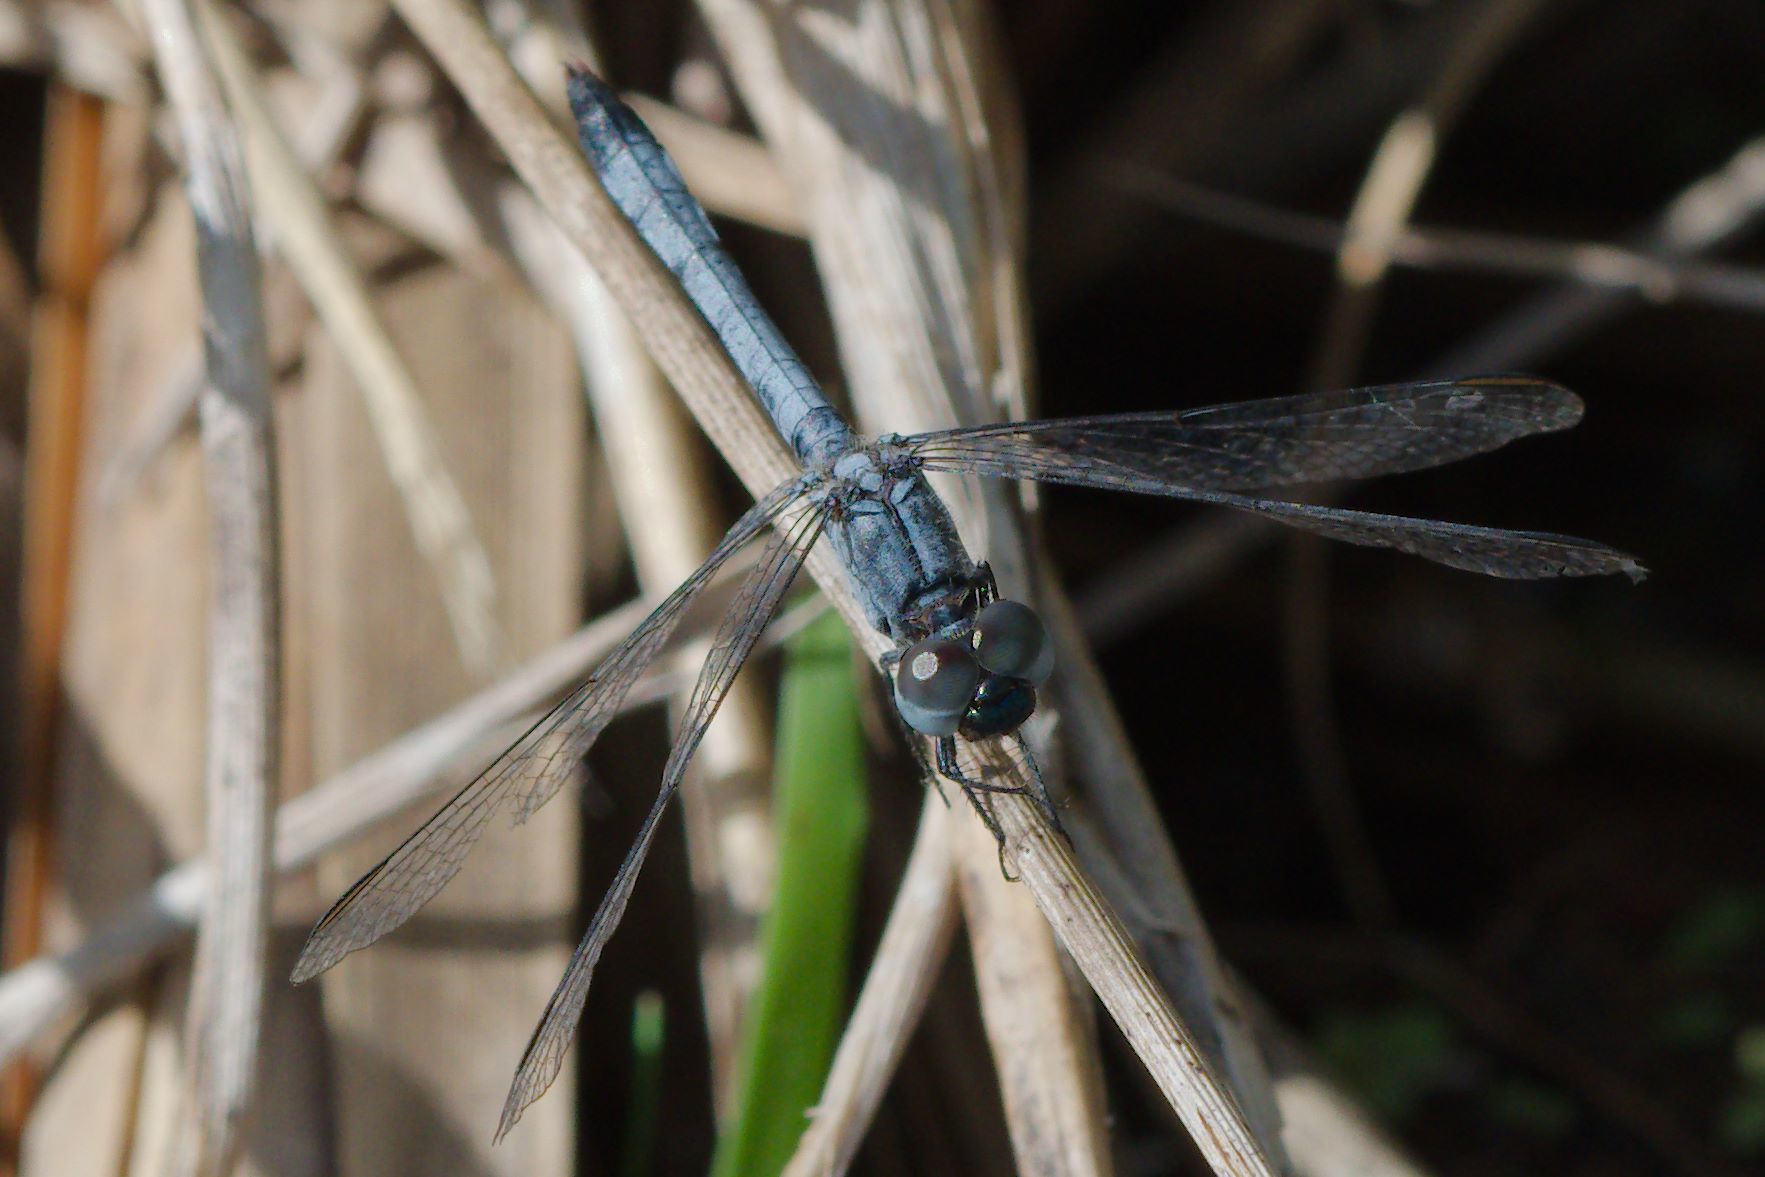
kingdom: Animalia
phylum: Arthropoda
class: Insecta
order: Odonata
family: Libellulidae
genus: Erythrodiplax
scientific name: Erythrodiplax minuscula
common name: Little blue dragonlet
